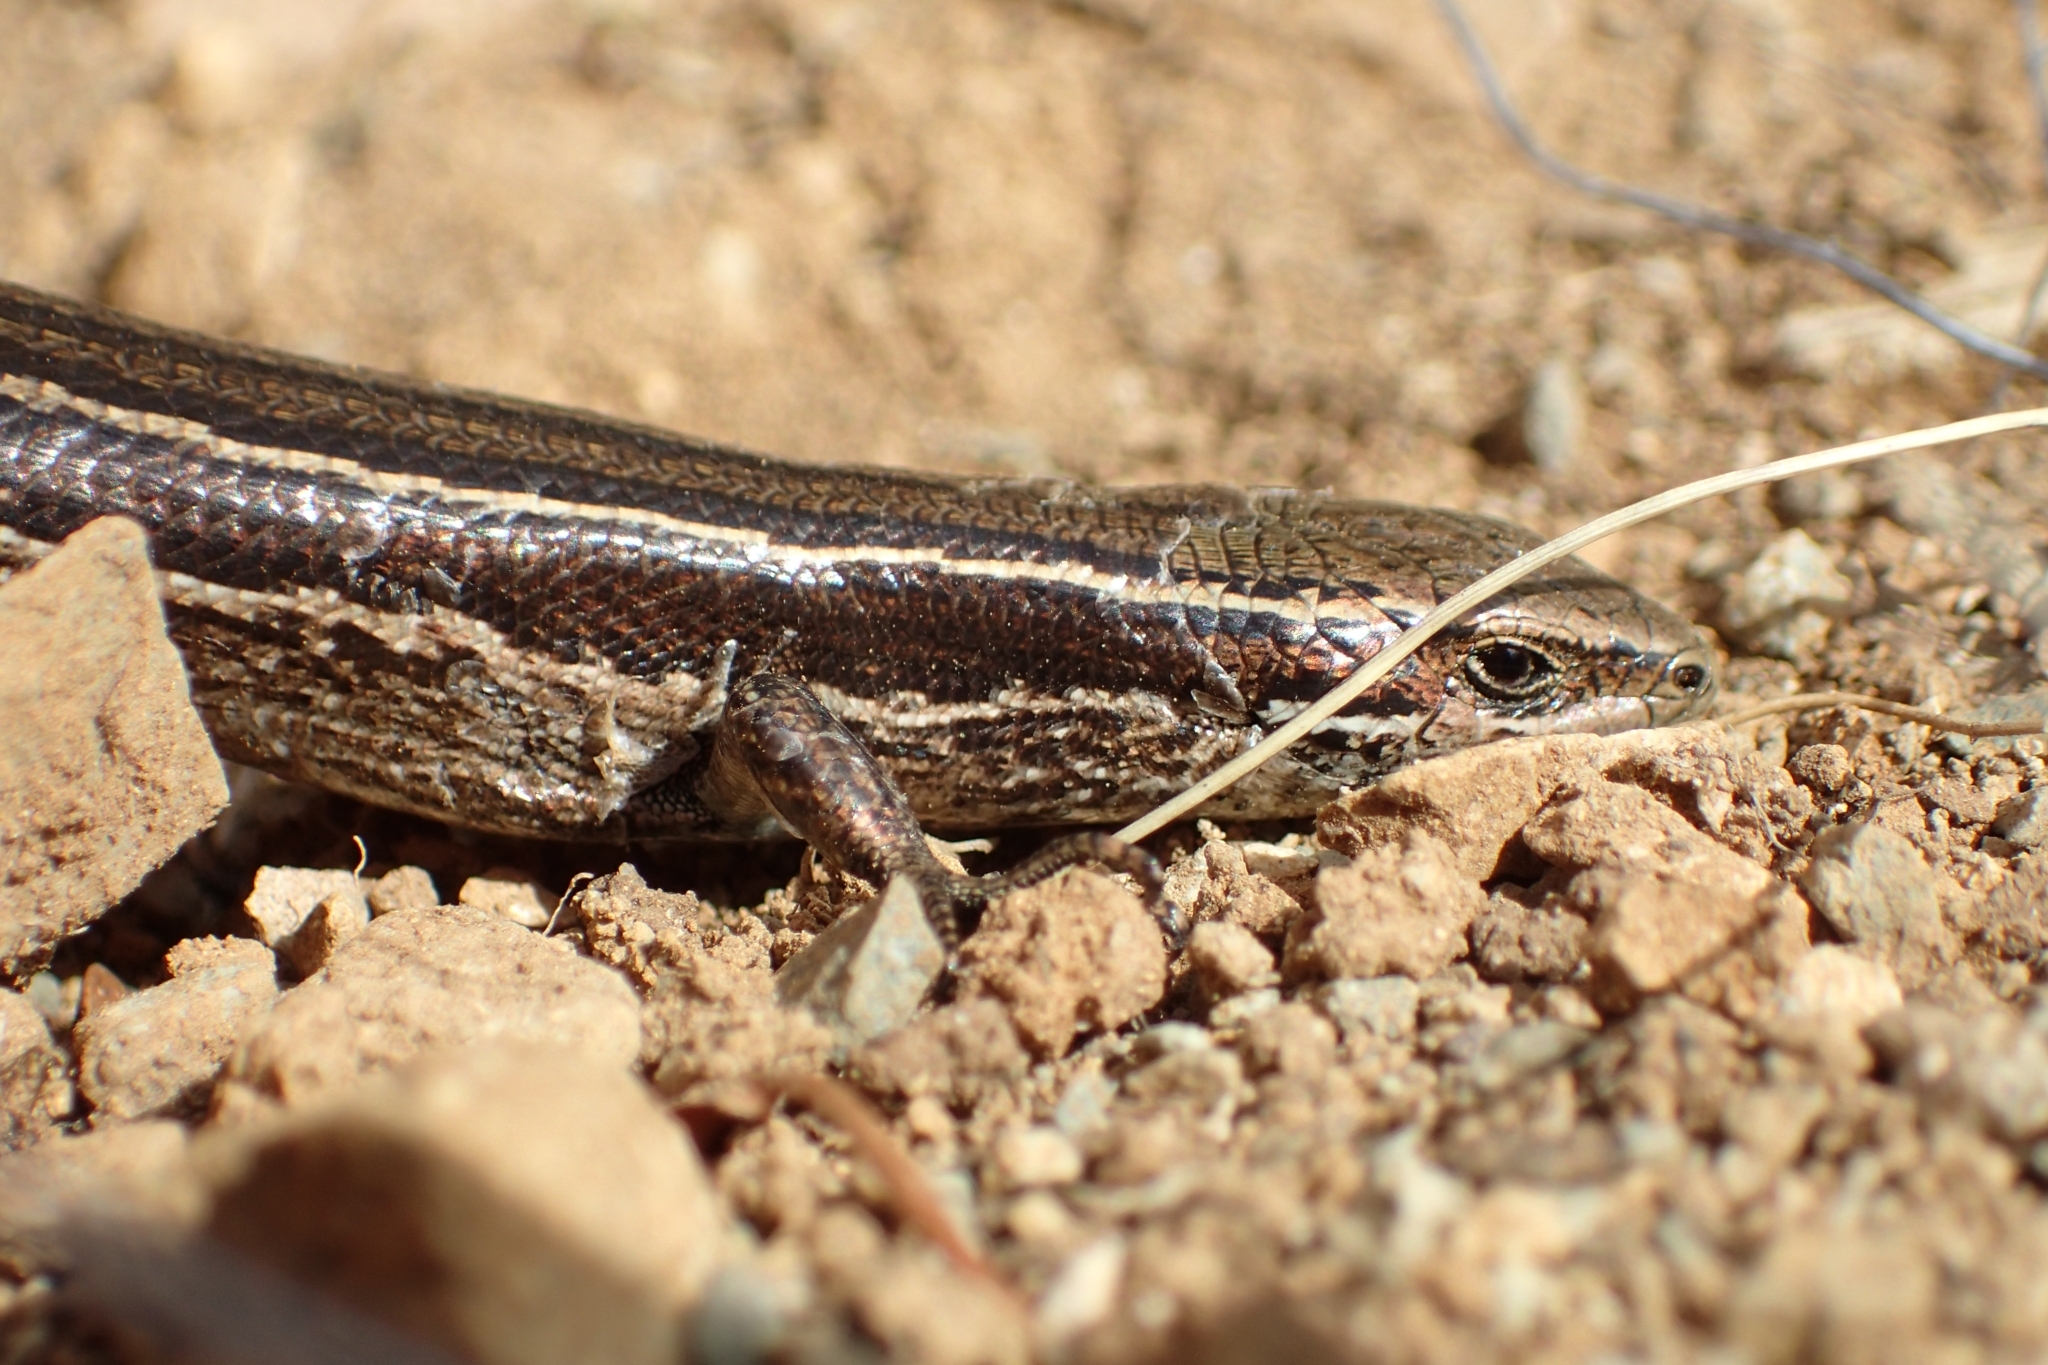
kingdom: Animalia
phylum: Chordata
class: Squamata
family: Scincidae
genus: Oligosoma
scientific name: Oligosoma repens
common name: Eyres skink
